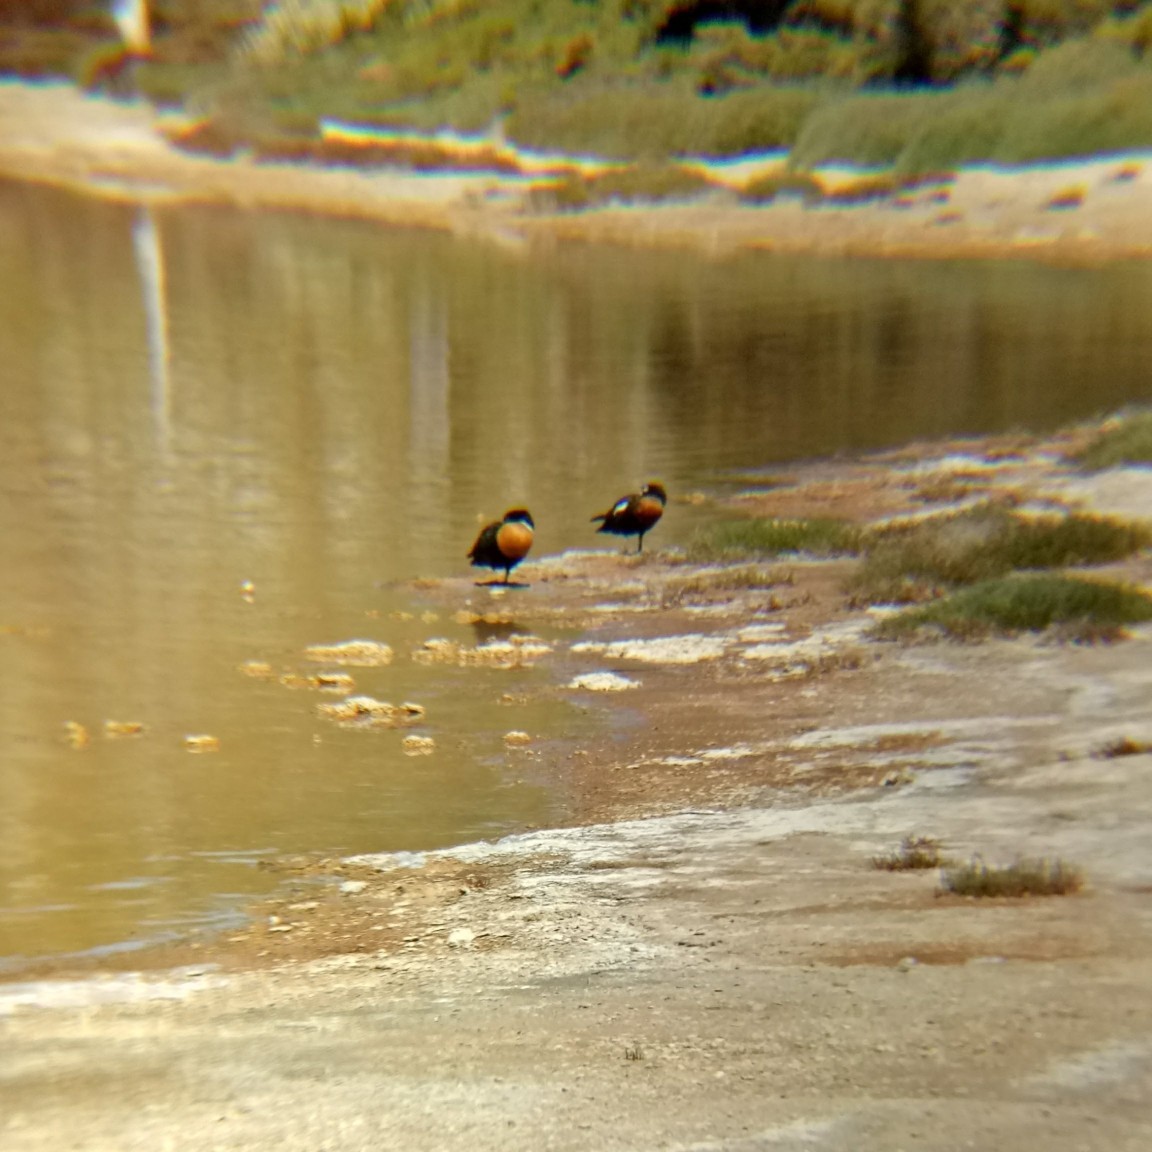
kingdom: Animalia
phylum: Chordata
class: Aves
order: Anseriformes
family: Anatidae
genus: Tadorna
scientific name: Tadorna tadornoides
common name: Australian shelduck
